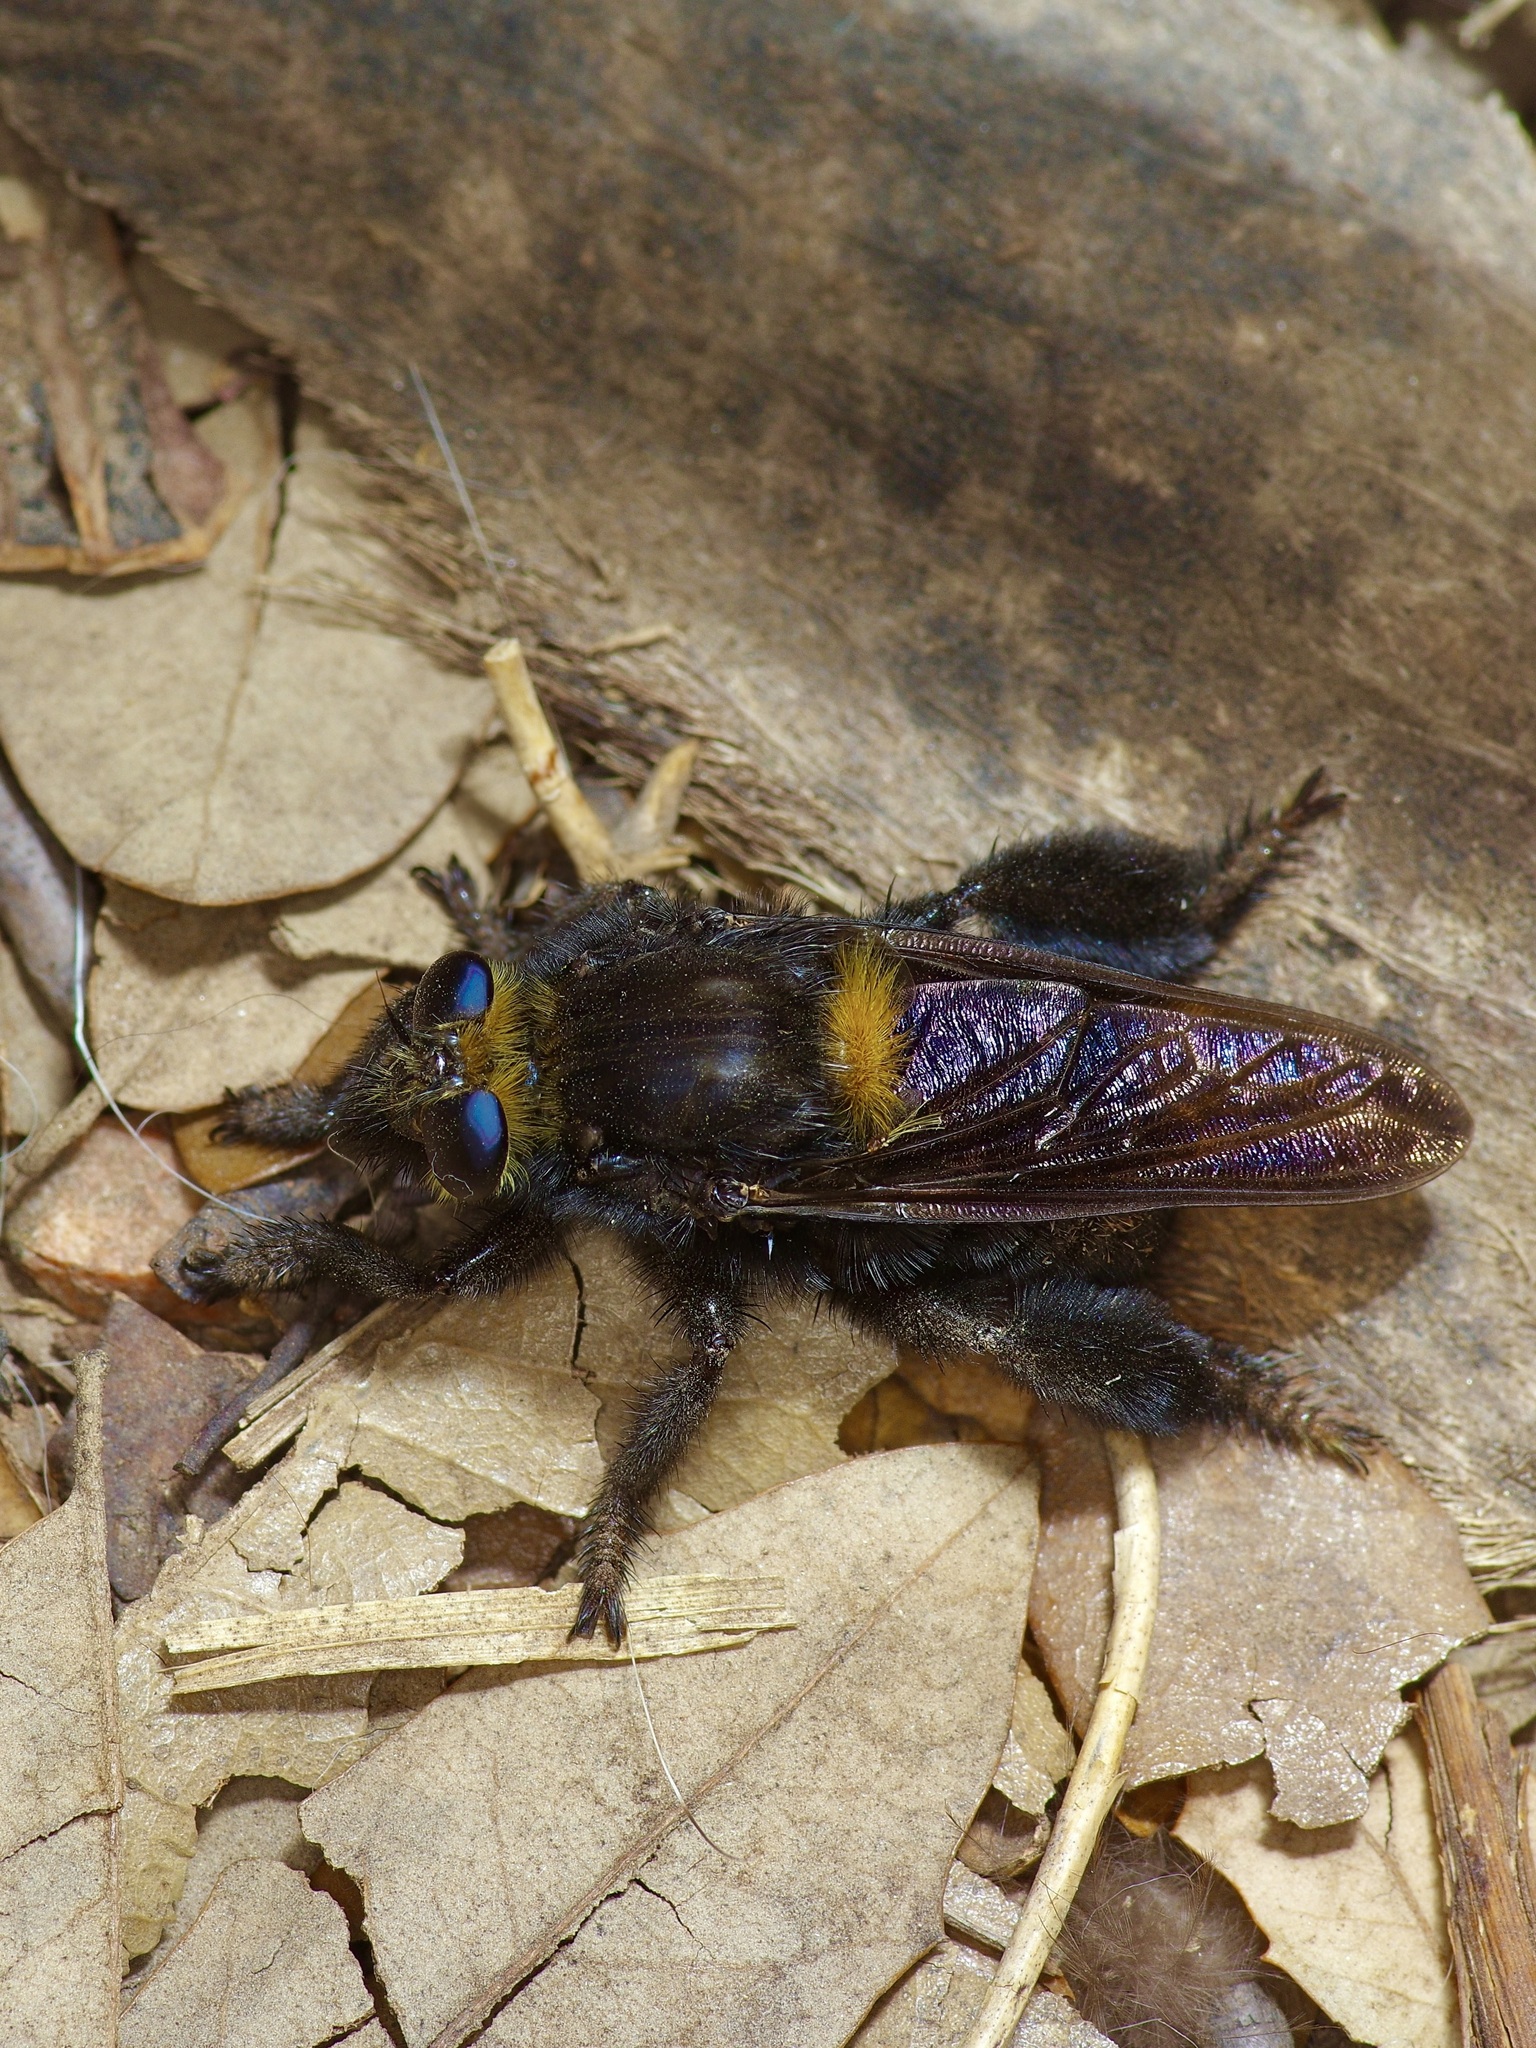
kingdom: Animalia
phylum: Arthropoda
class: Insecta
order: Diptera
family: Asilidae
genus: Mallophora
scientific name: Mallophora leschenaultii
